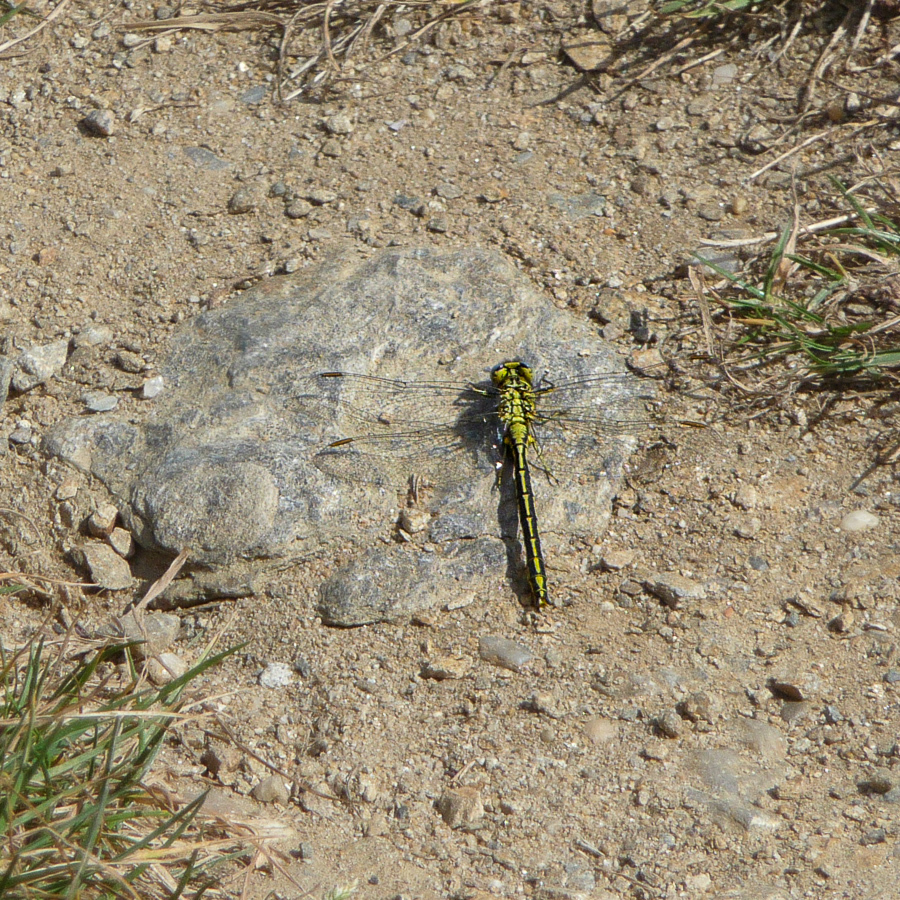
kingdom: Animalia
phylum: Arthropoda
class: Insecta
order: Odonata
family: Gomphidae
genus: Gomphus
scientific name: Gomphus pulchellus
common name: Western clubtail
